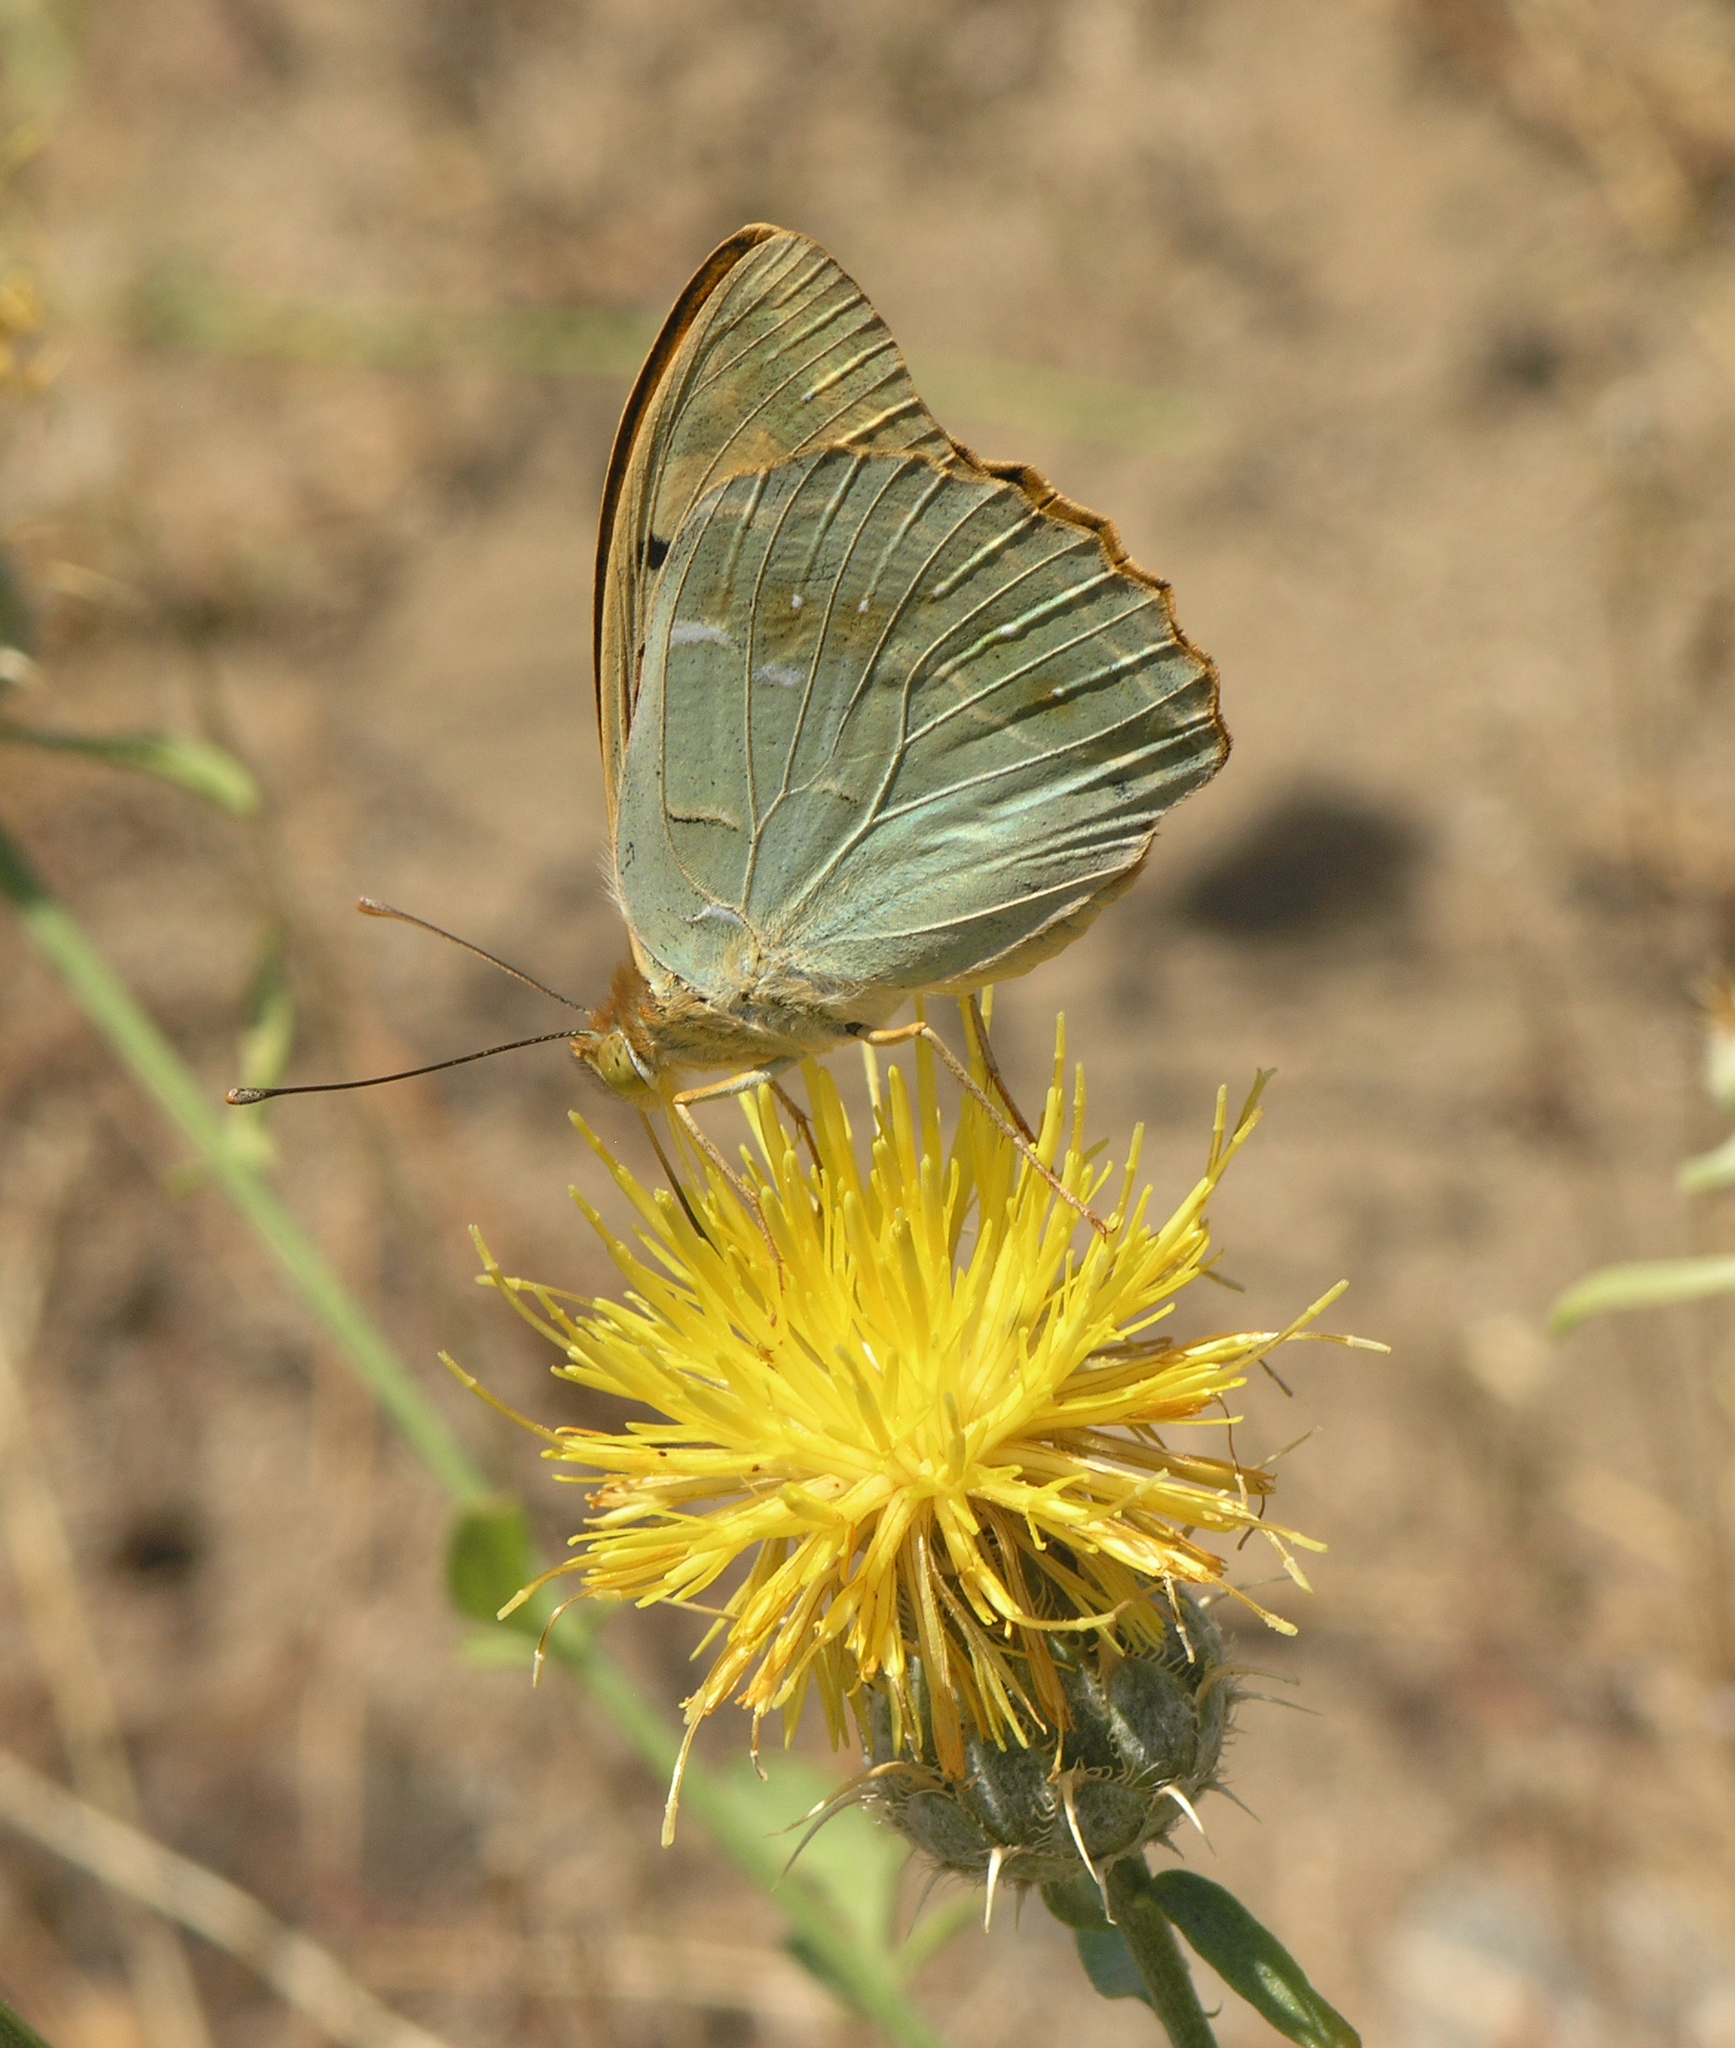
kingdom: Animalia
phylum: Arthropoda
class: Insecta
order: Lepidoptera
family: Nymphalidae
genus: Damora
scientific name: Damora pandora
